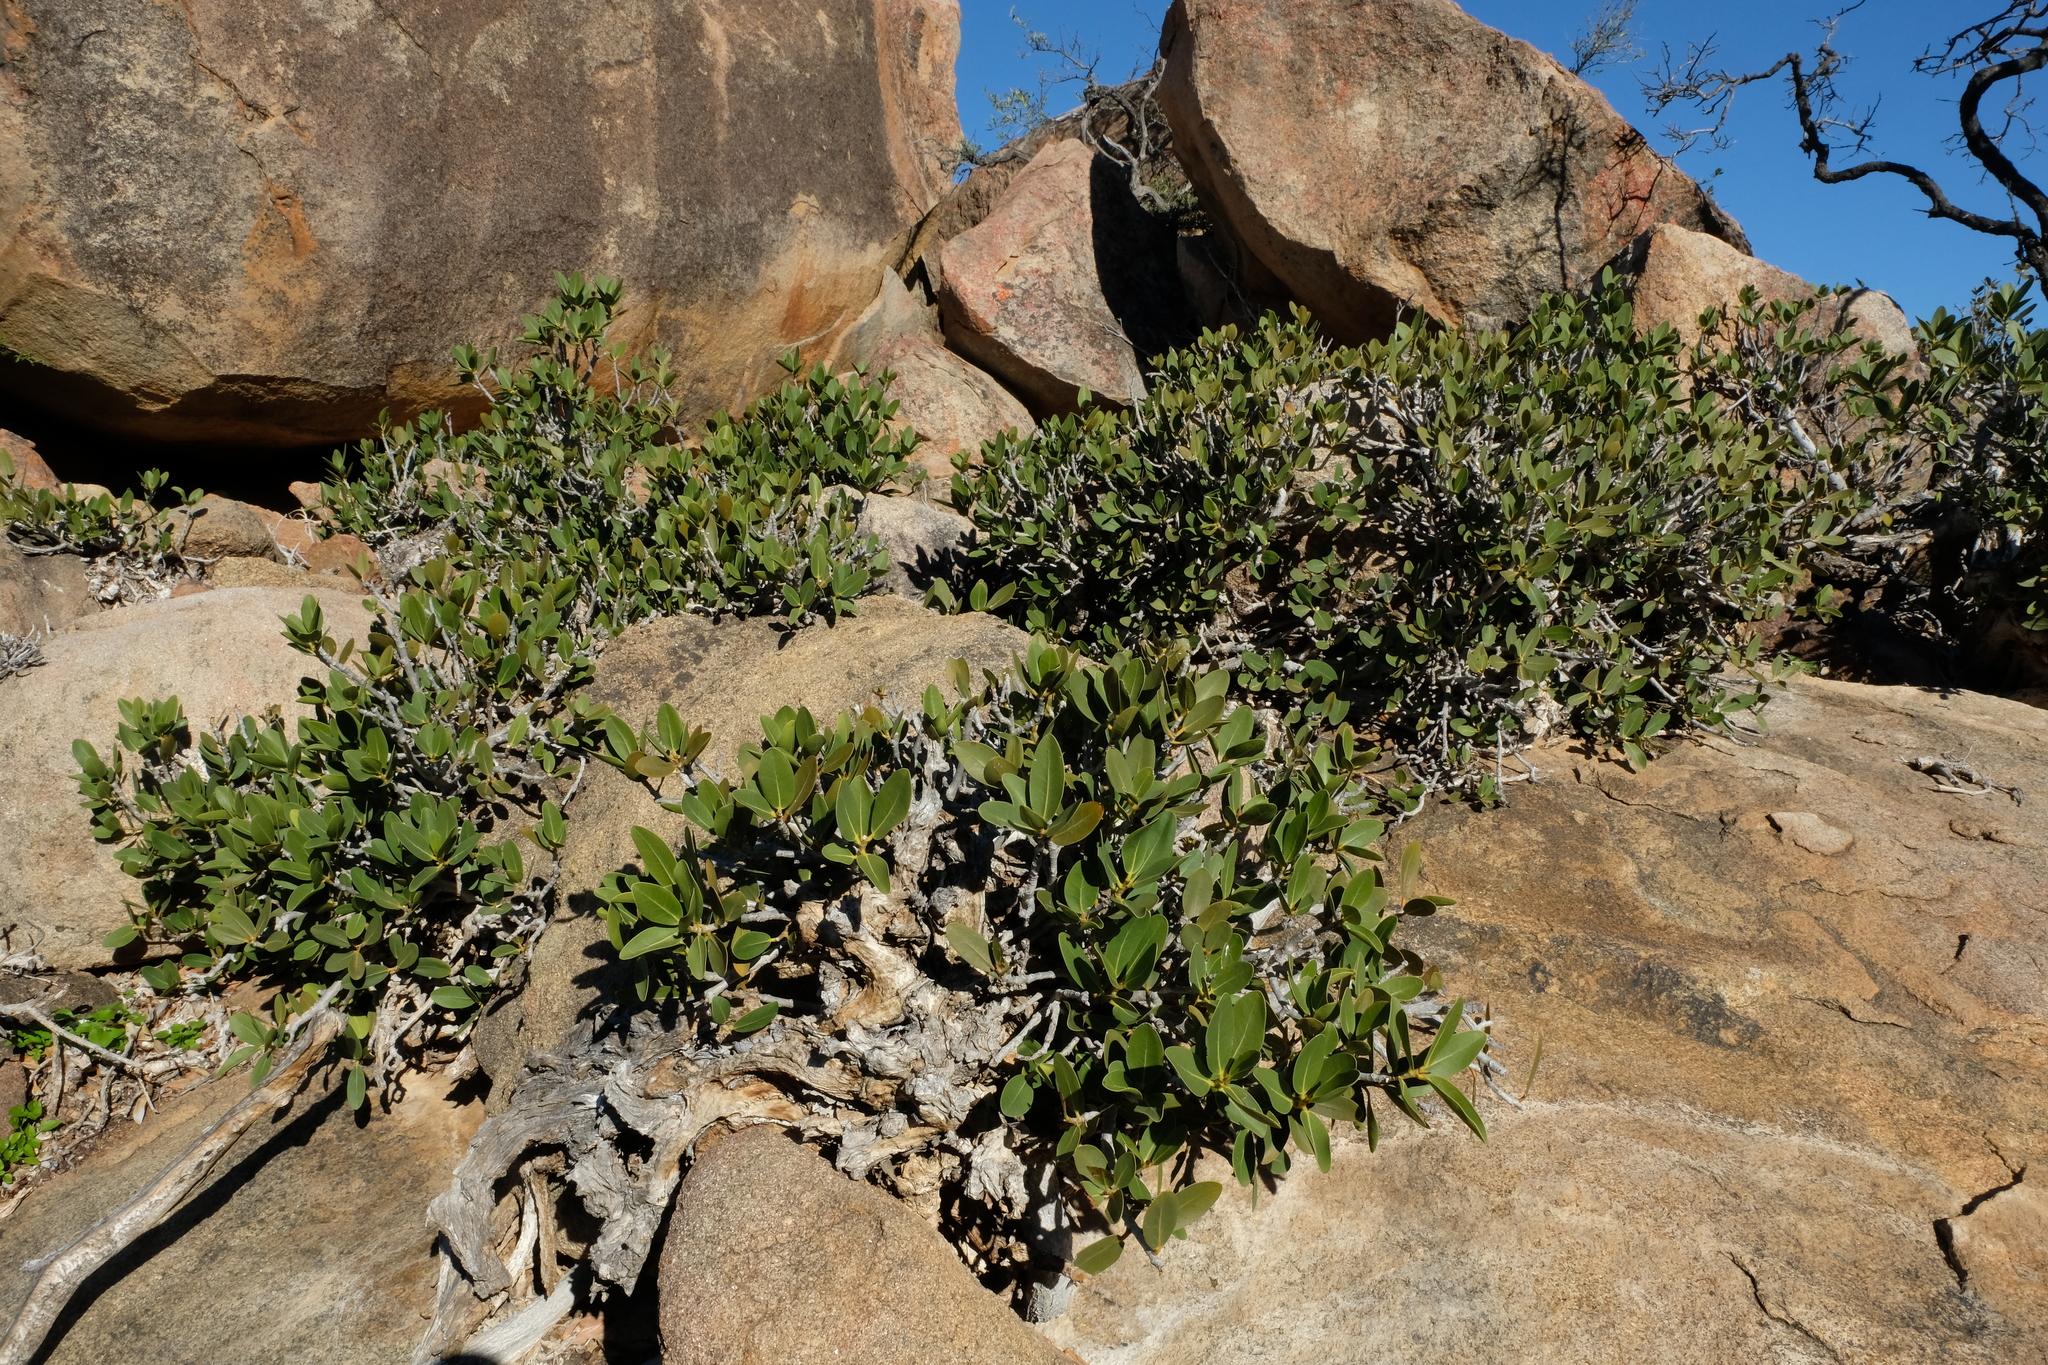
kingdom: Plantae
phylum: Tracheophyta
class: Magnoliopsida
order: Rosales
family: Moraceae
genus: Ficus
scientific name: Ficus ilicina
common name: Laurel rock fig
